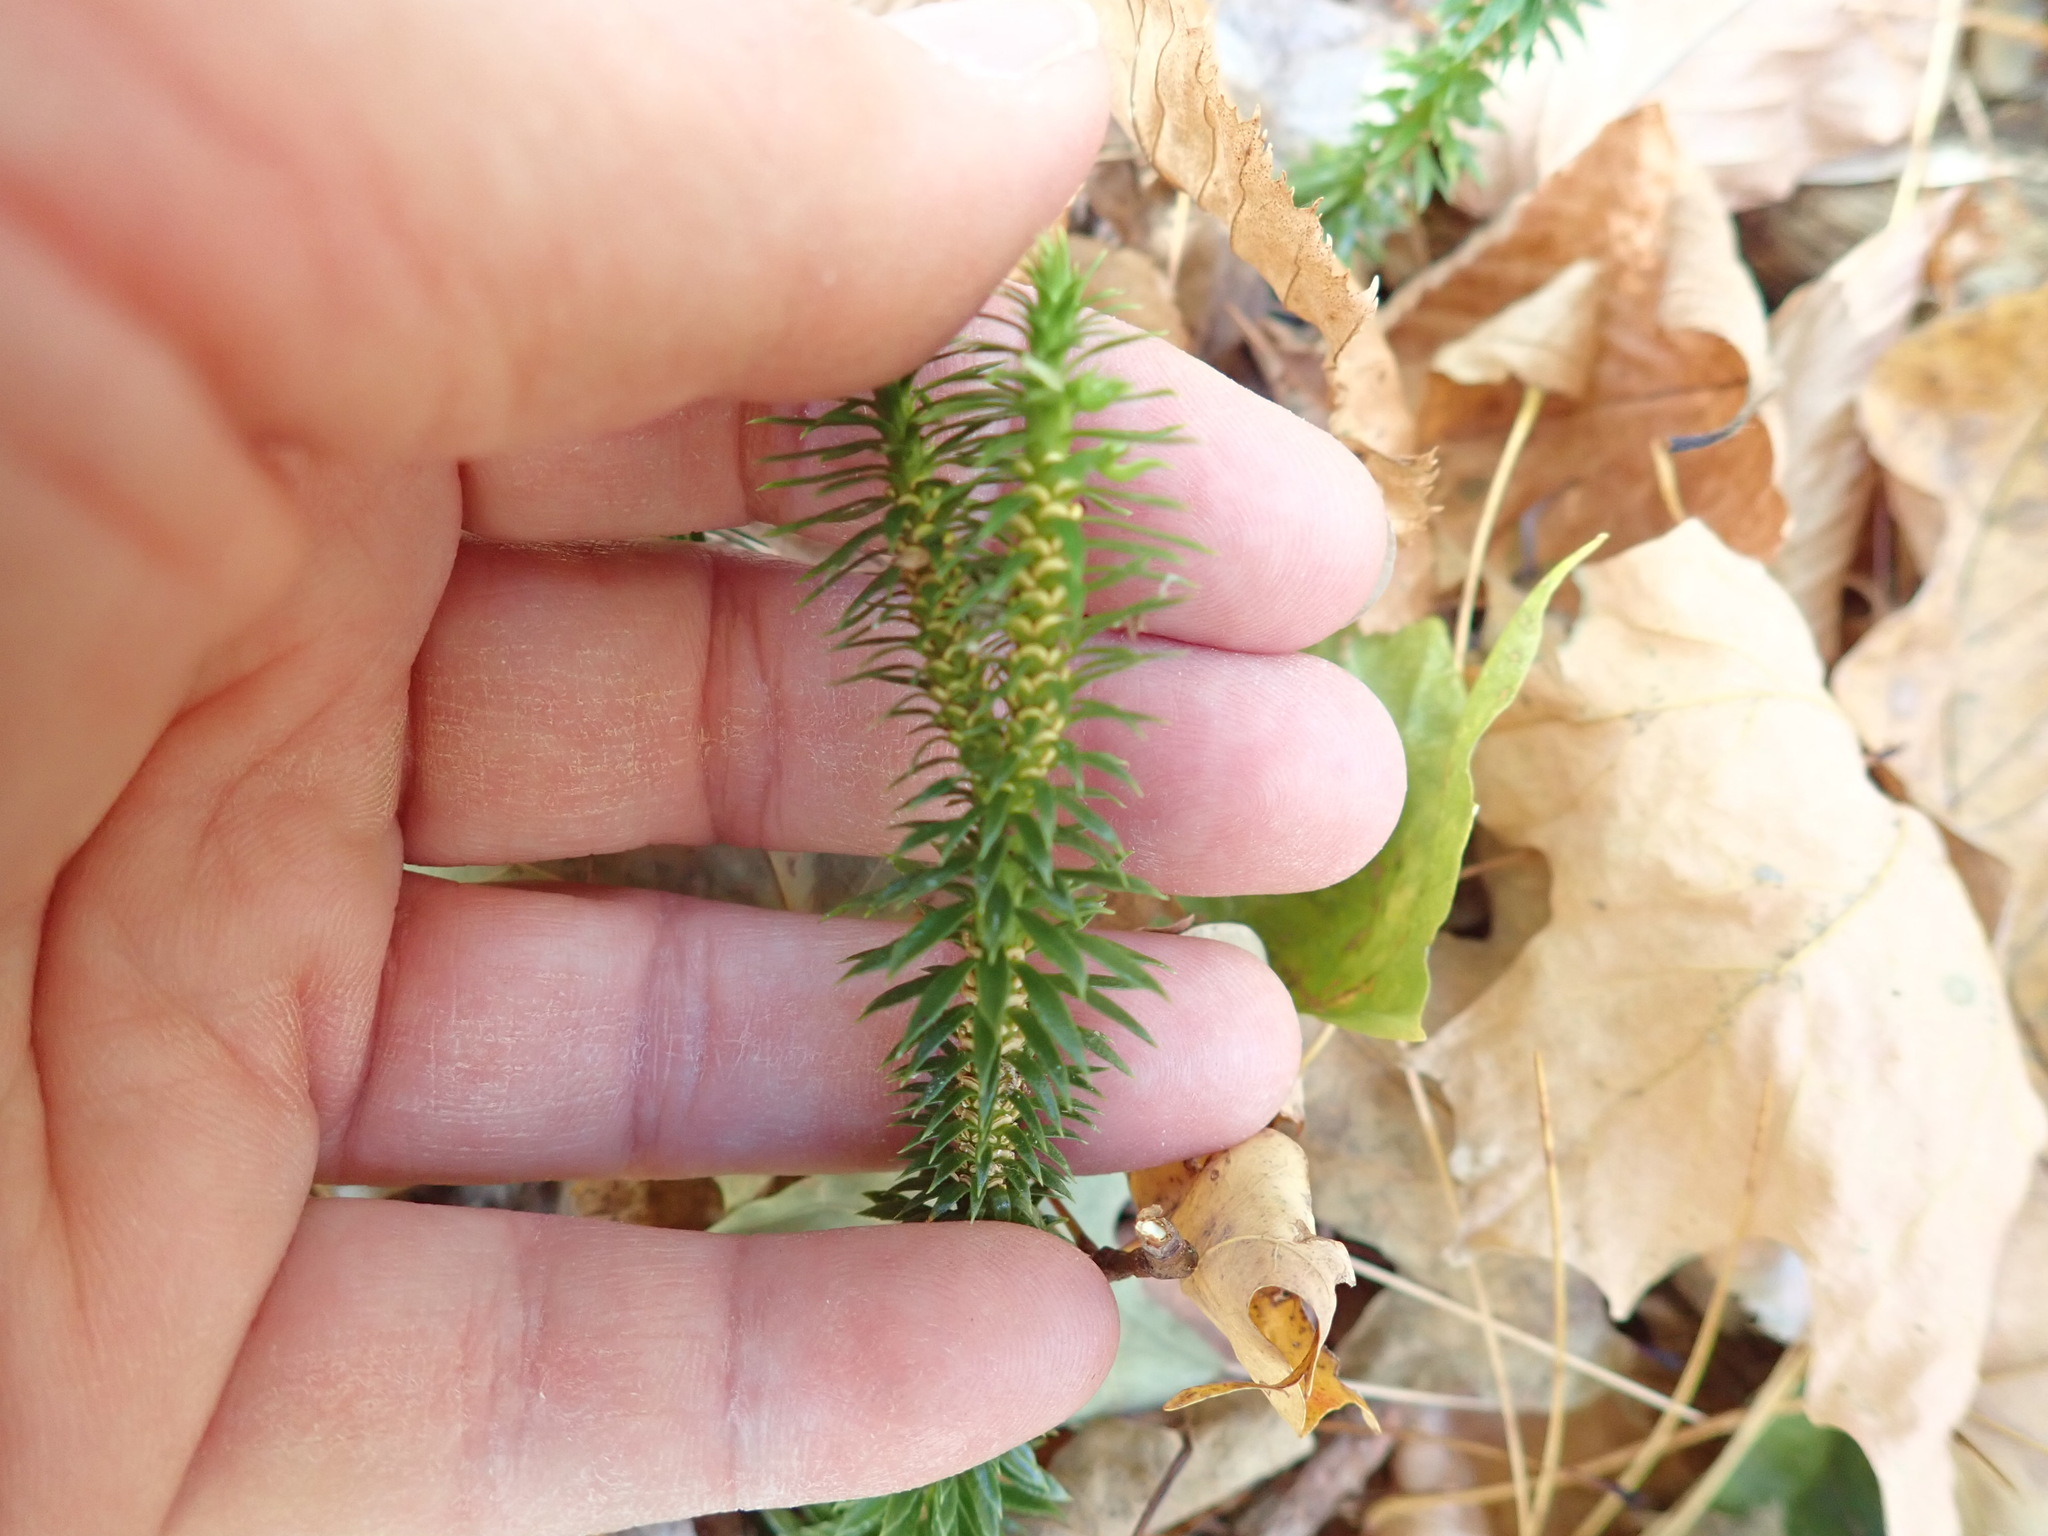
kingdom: Plantae
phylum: Tracheophyta
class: Lycopodiopsida
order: Lycopodiales
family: Lycopodiaceae
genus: Huperzia
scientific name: Huperzia lucidula
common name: Shining clubmoss
